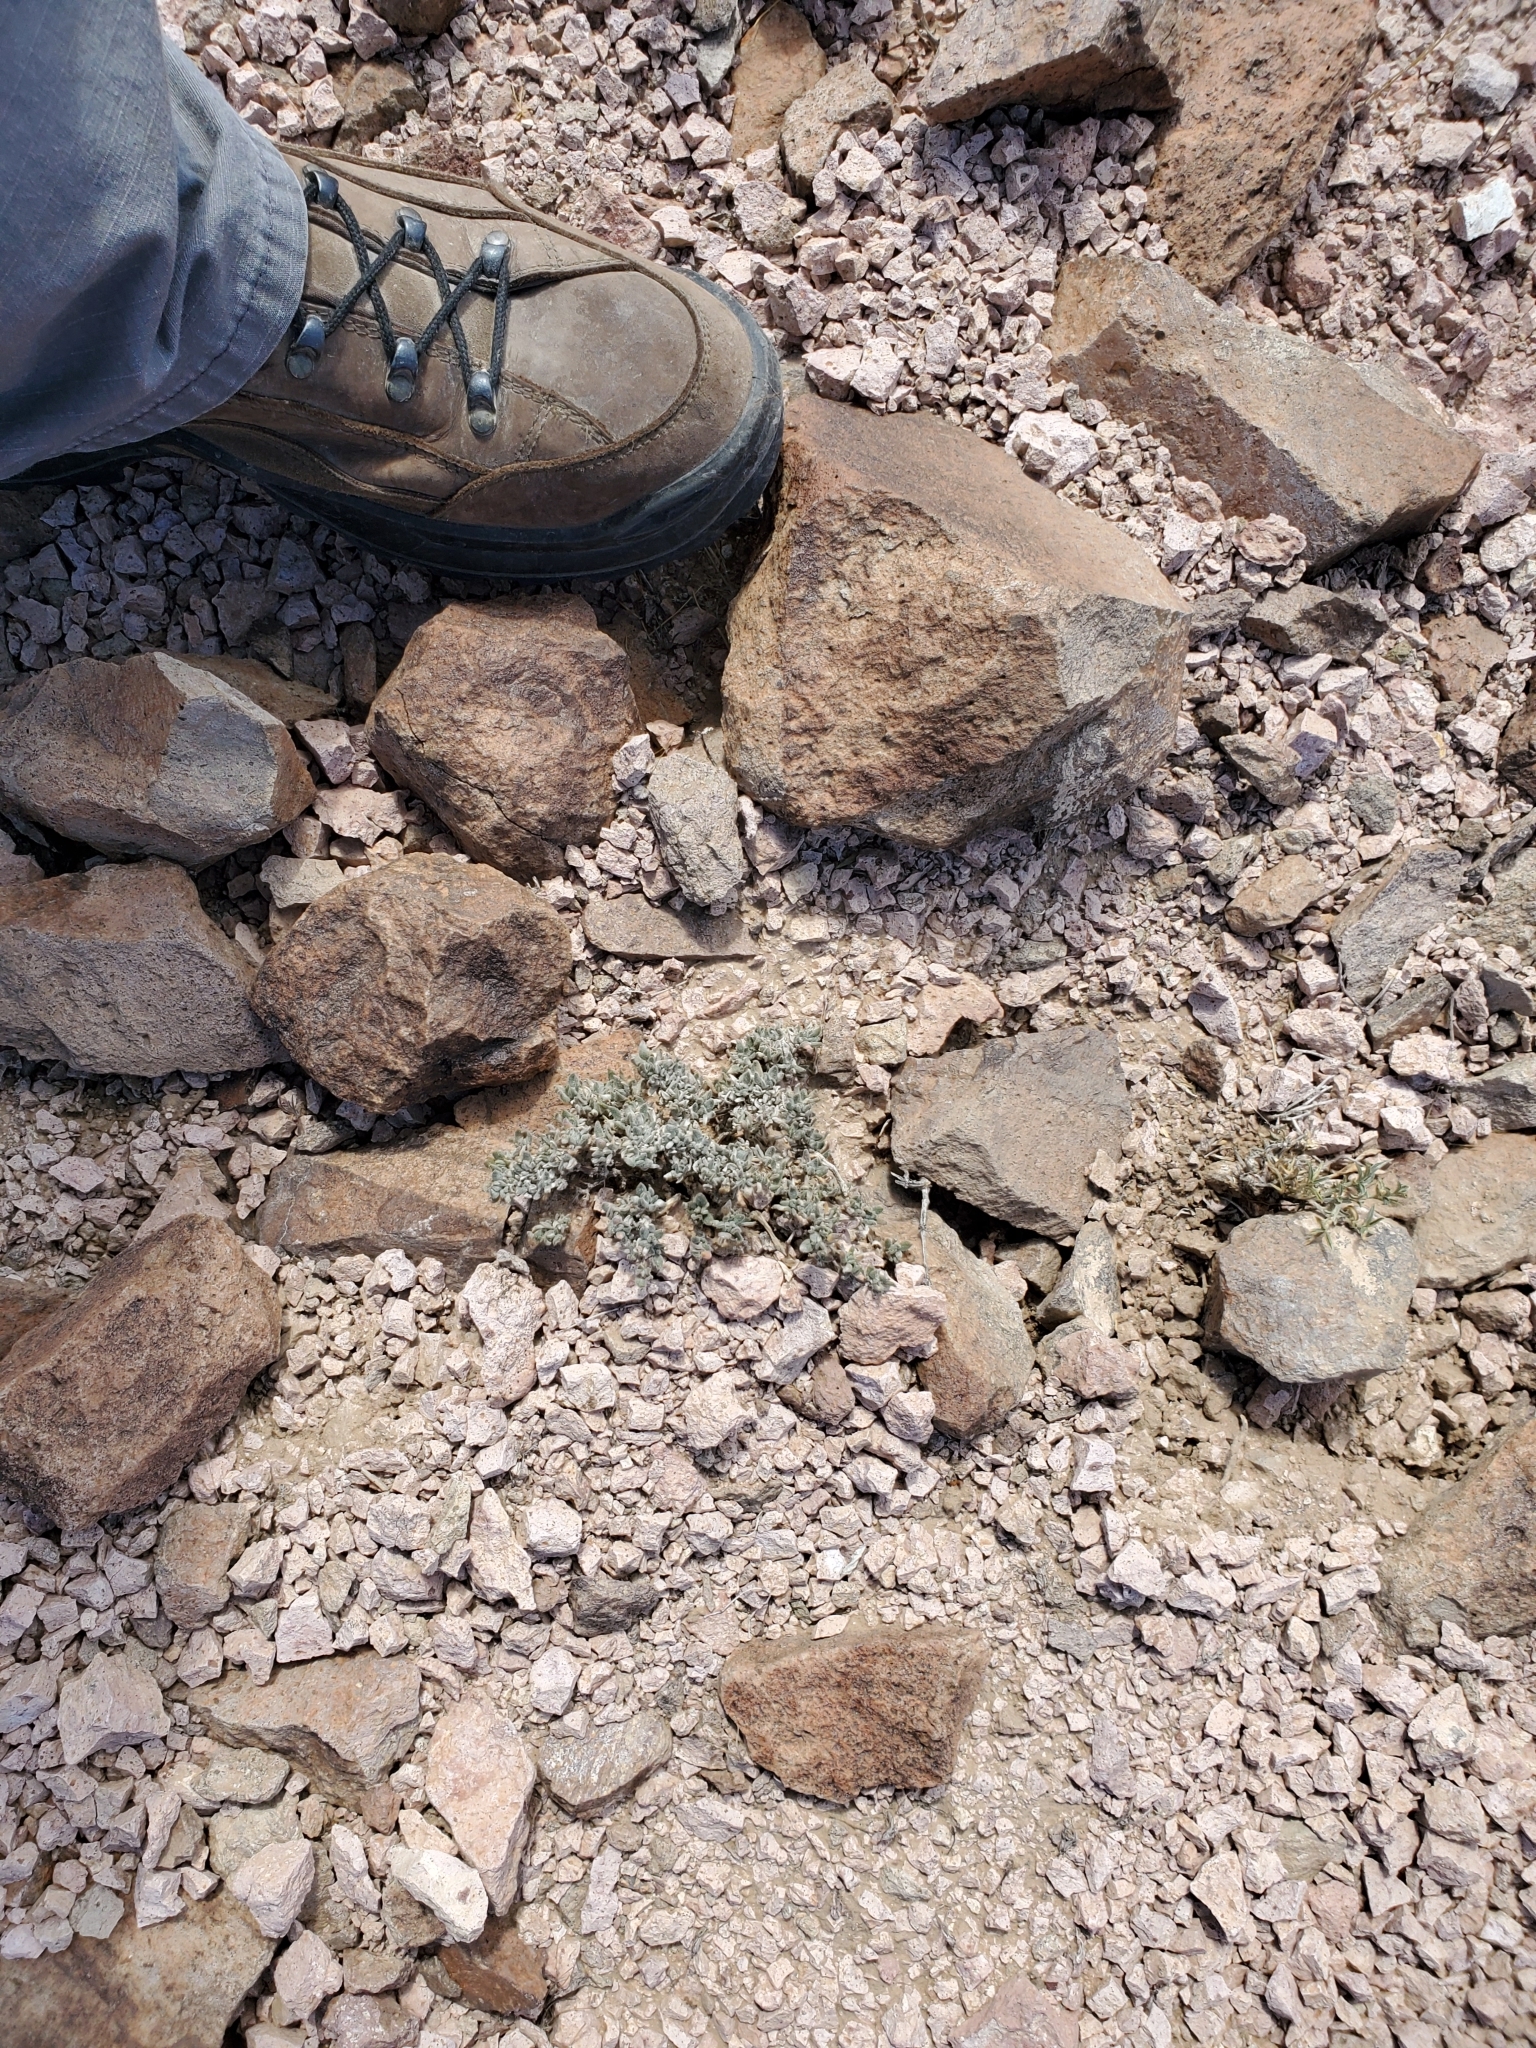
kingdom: Plantae
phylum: Tracheophyta
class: Magnoliopsida
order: Boraginales
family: Ehretiaceae
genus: Tiquilia
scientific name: Tiquilia canescens
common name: Hairy tiquilia
